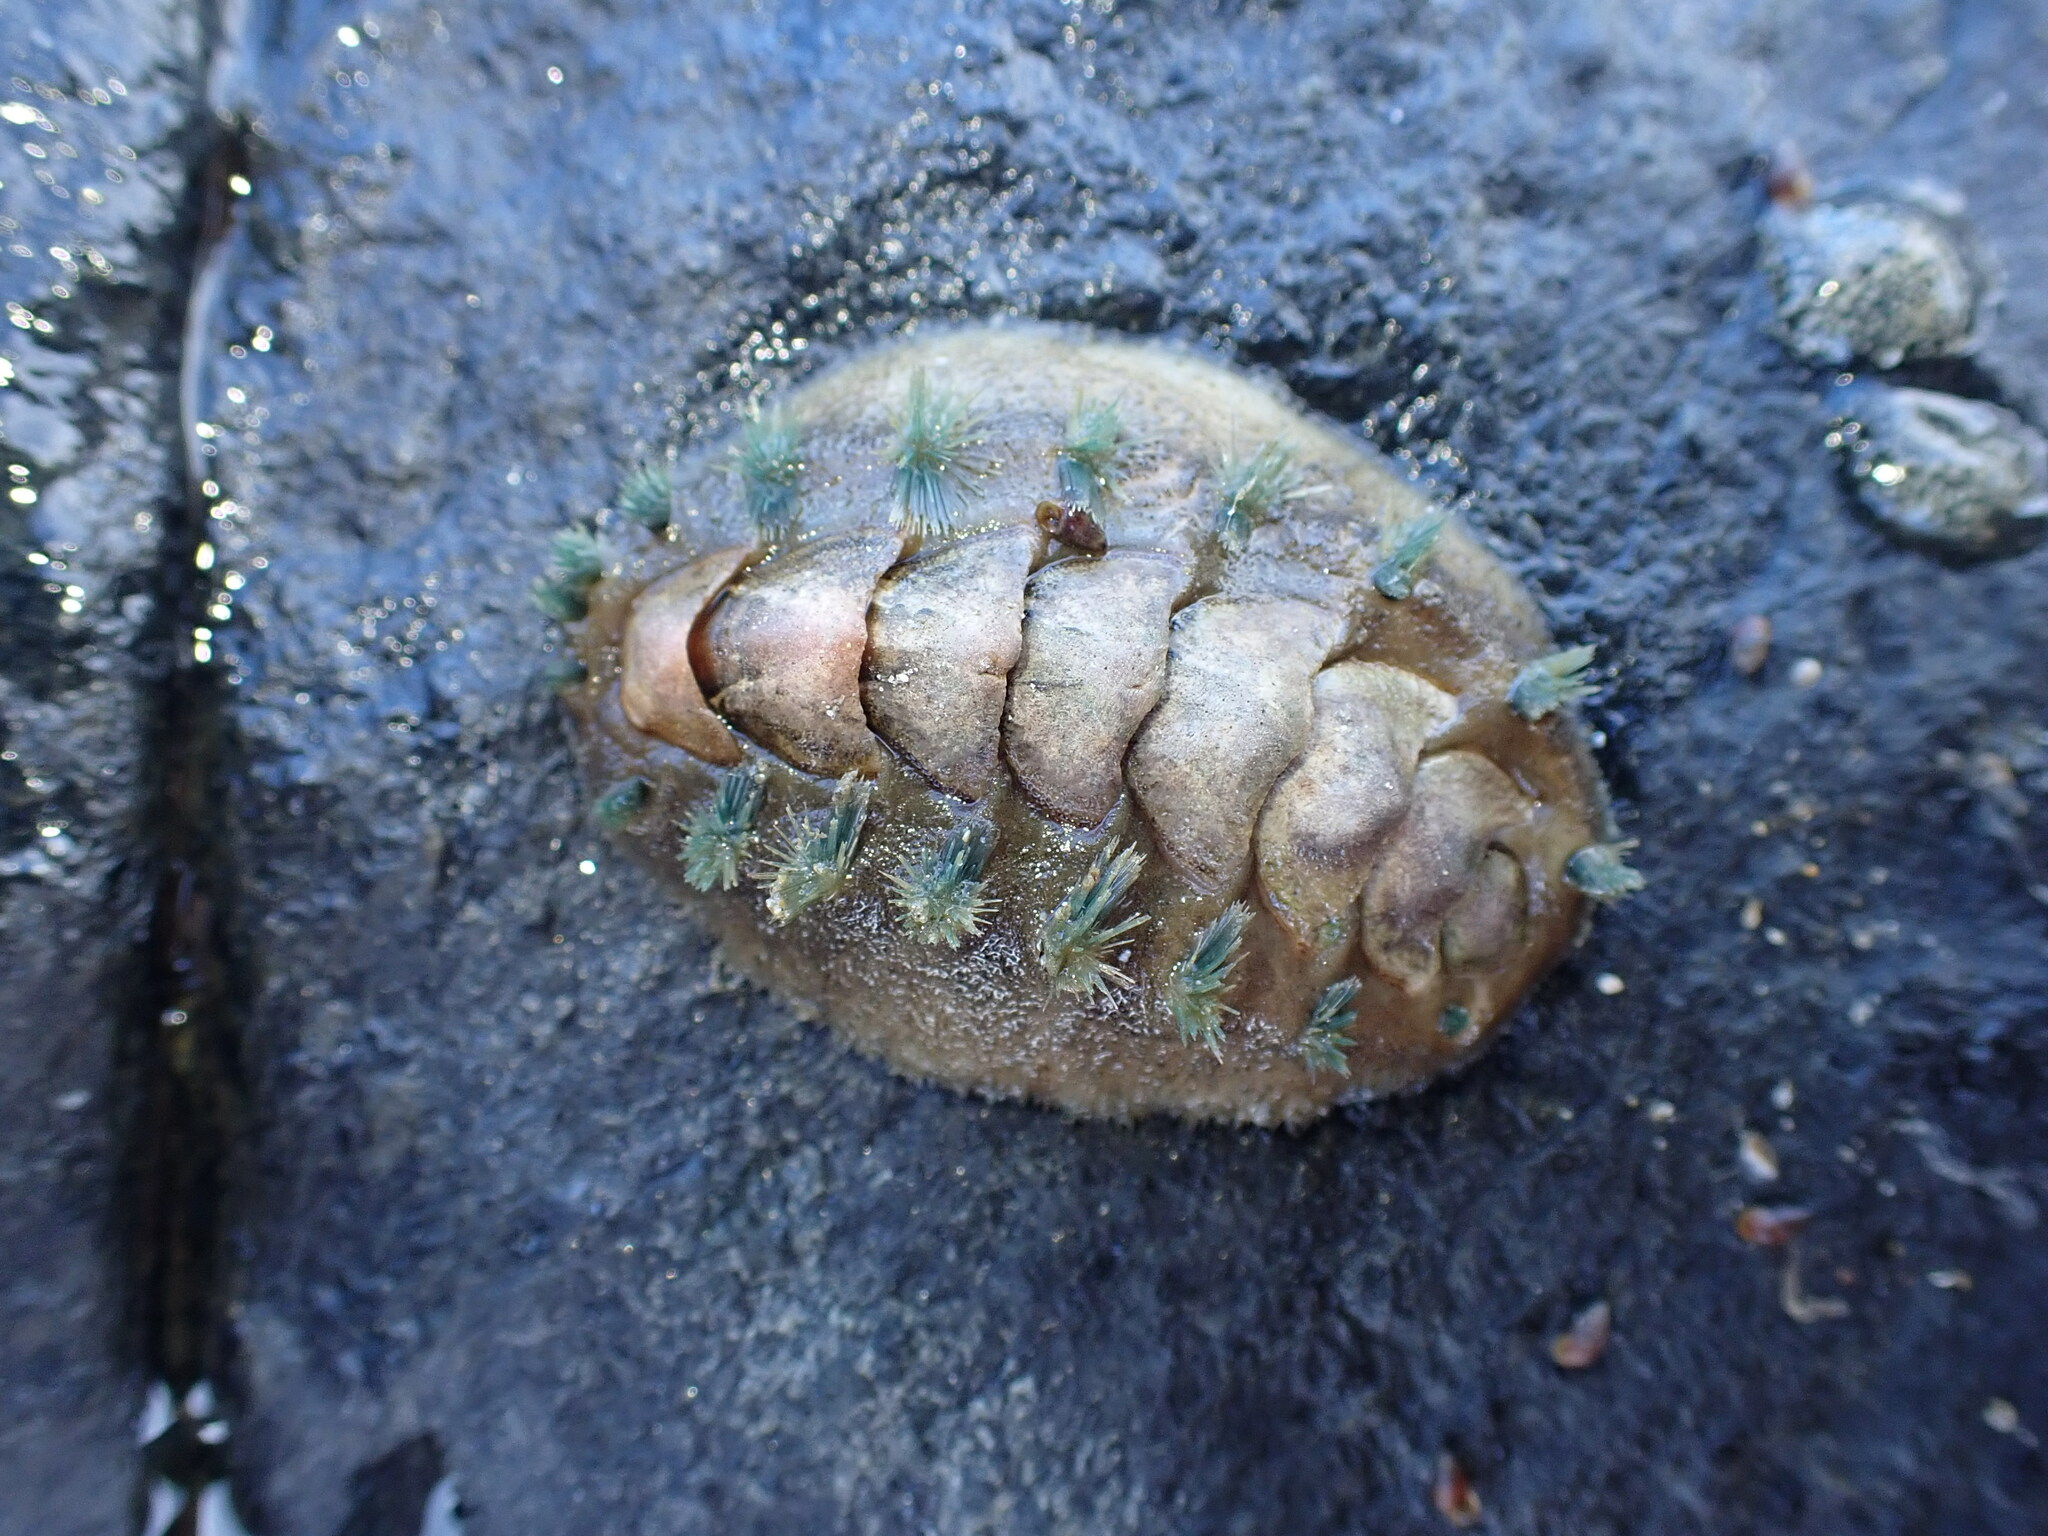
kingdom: Animalia
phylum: Mollusca
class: Polyplacophora
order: Chitonida
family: Acanthochitonidae
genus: Acanthochitona
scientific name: Acanthochitona zelandica
